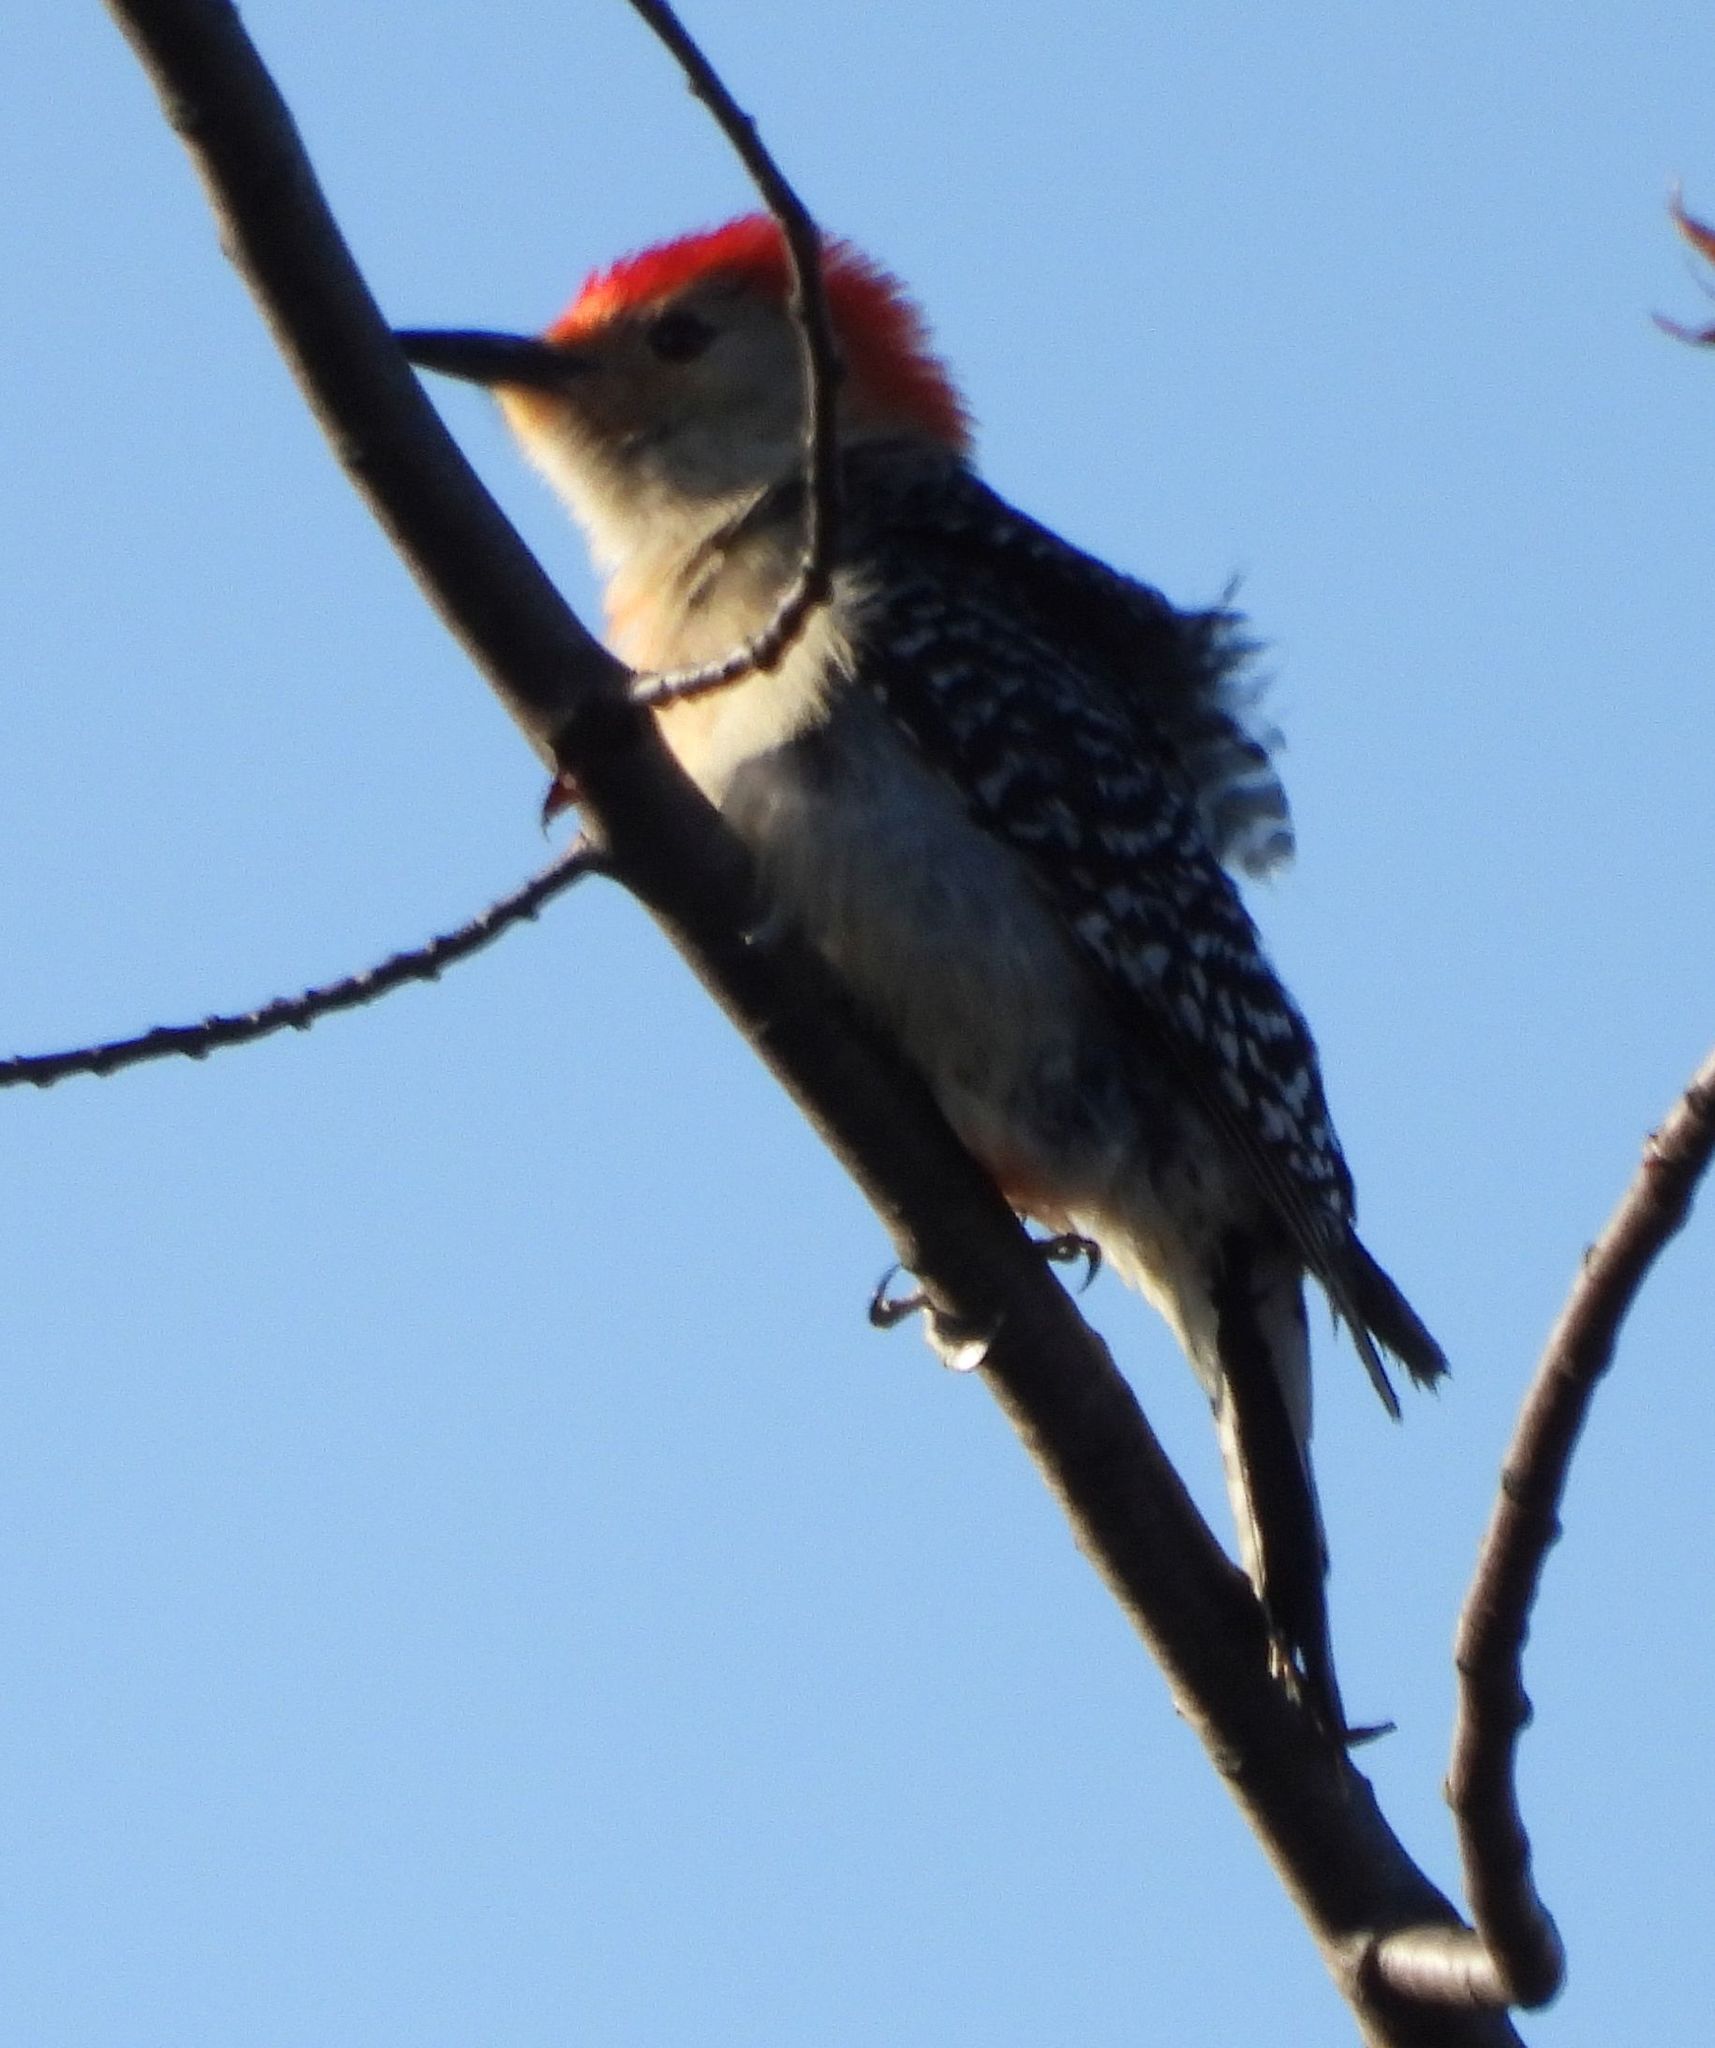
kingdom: Animalia
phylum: Chordata
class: Aves
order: Piciformes
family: Picidae
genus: Melanerpes
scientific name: Melanerpes carolinus
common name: Red-bellied woodpecker
